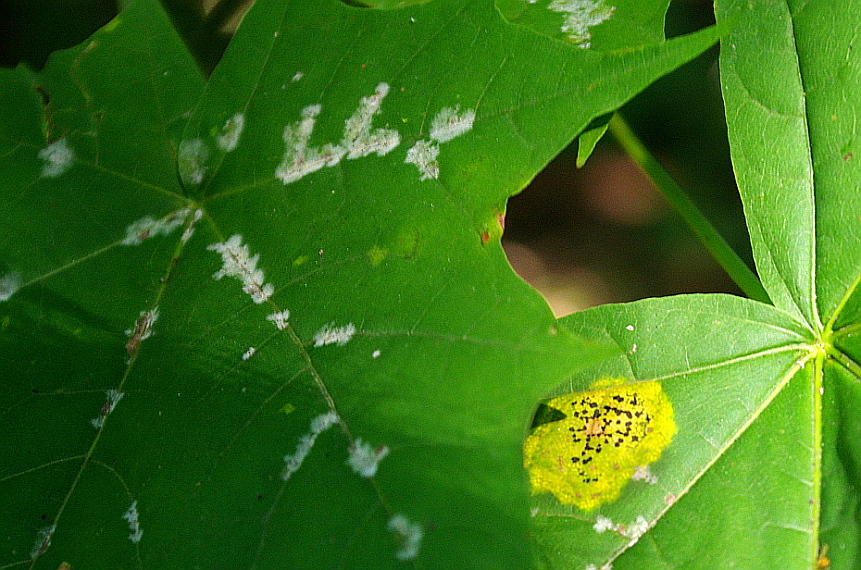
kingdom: Fungi
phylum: Ascomycota
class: Leotiomycetes
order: Rhytismatales
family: Rhytismataceae
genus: Rhytisma
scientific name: Rhytisma punctatum
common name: Speckled tar spot
